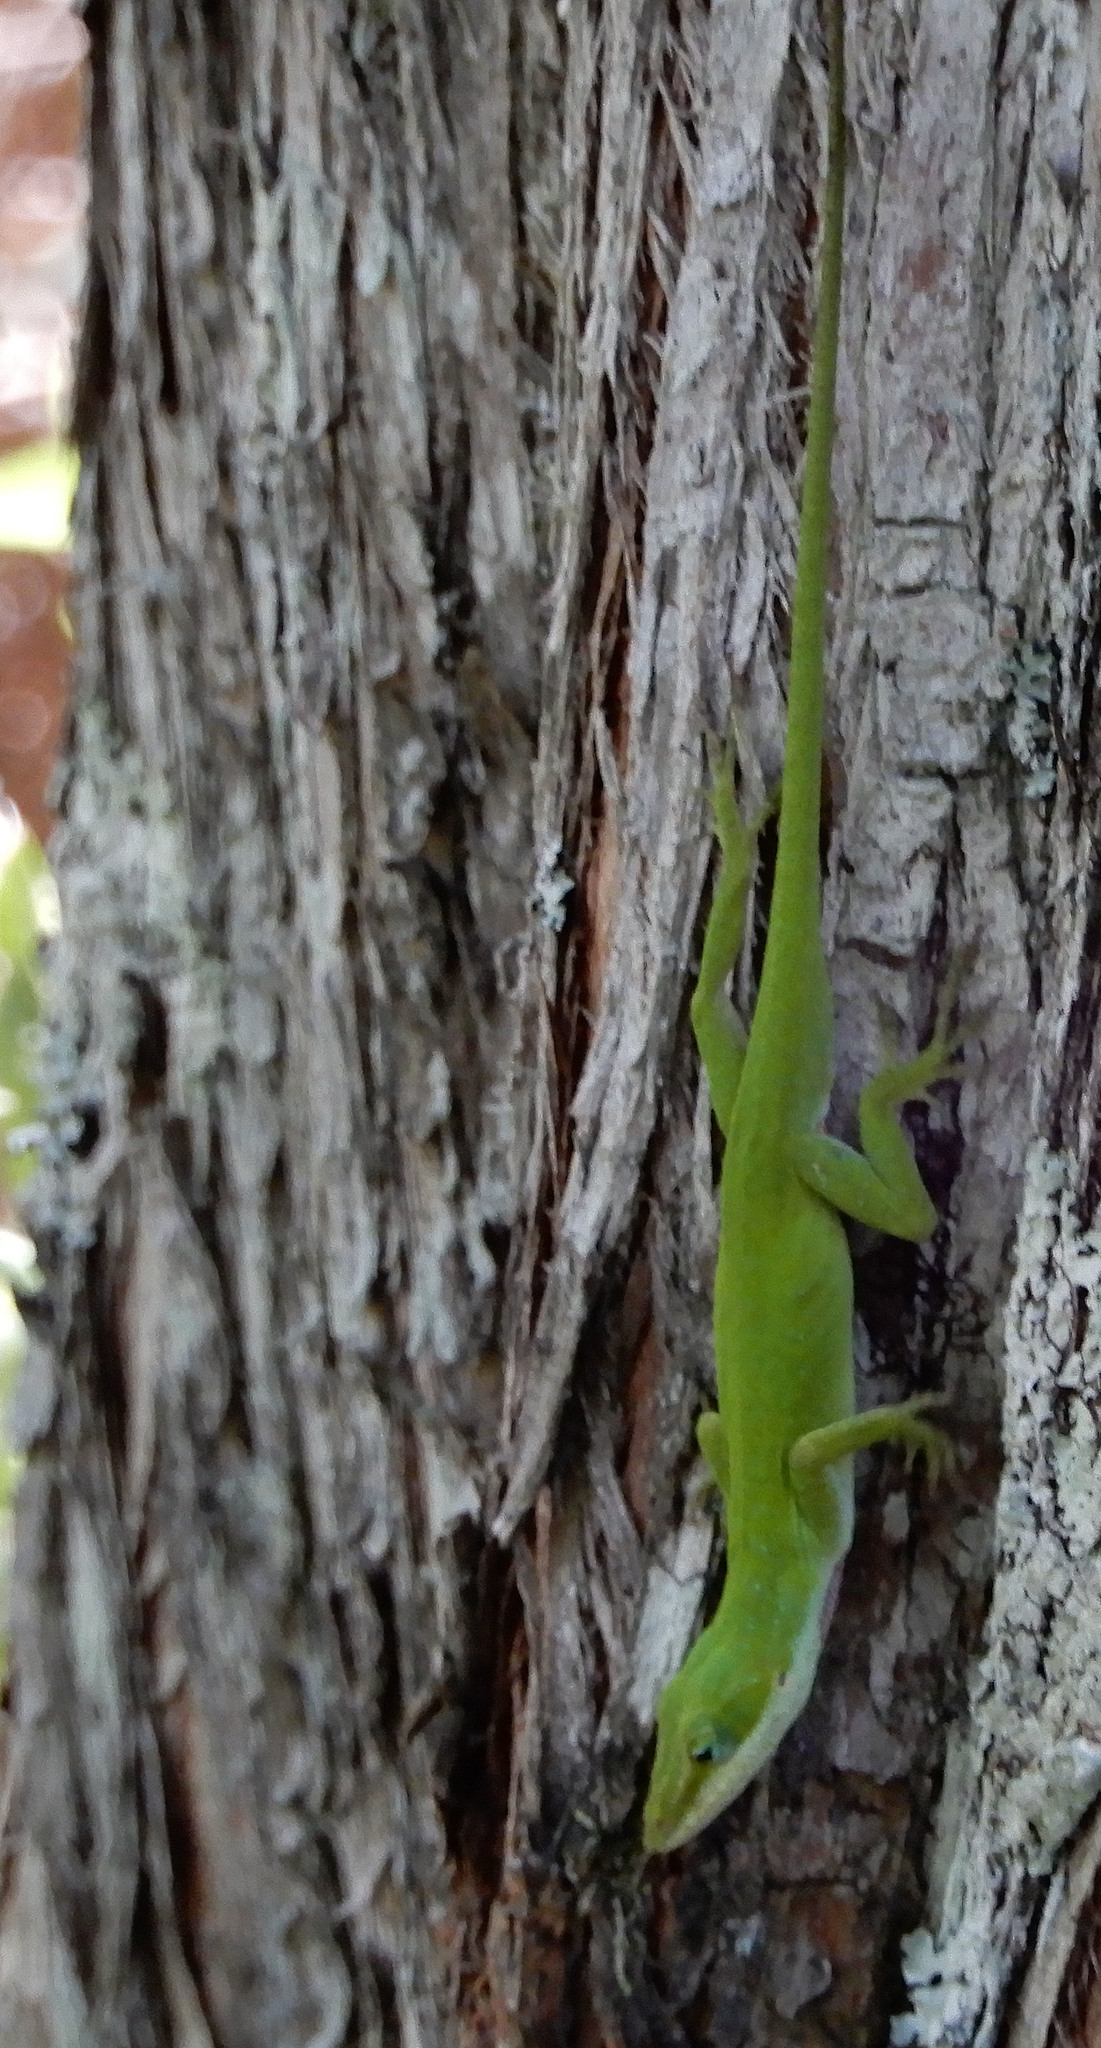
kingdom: Animalia
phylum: Chordata
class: Squamata
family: Dactyloidae
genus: Anolis
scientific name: Anolis carolinensis
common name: Green anole
